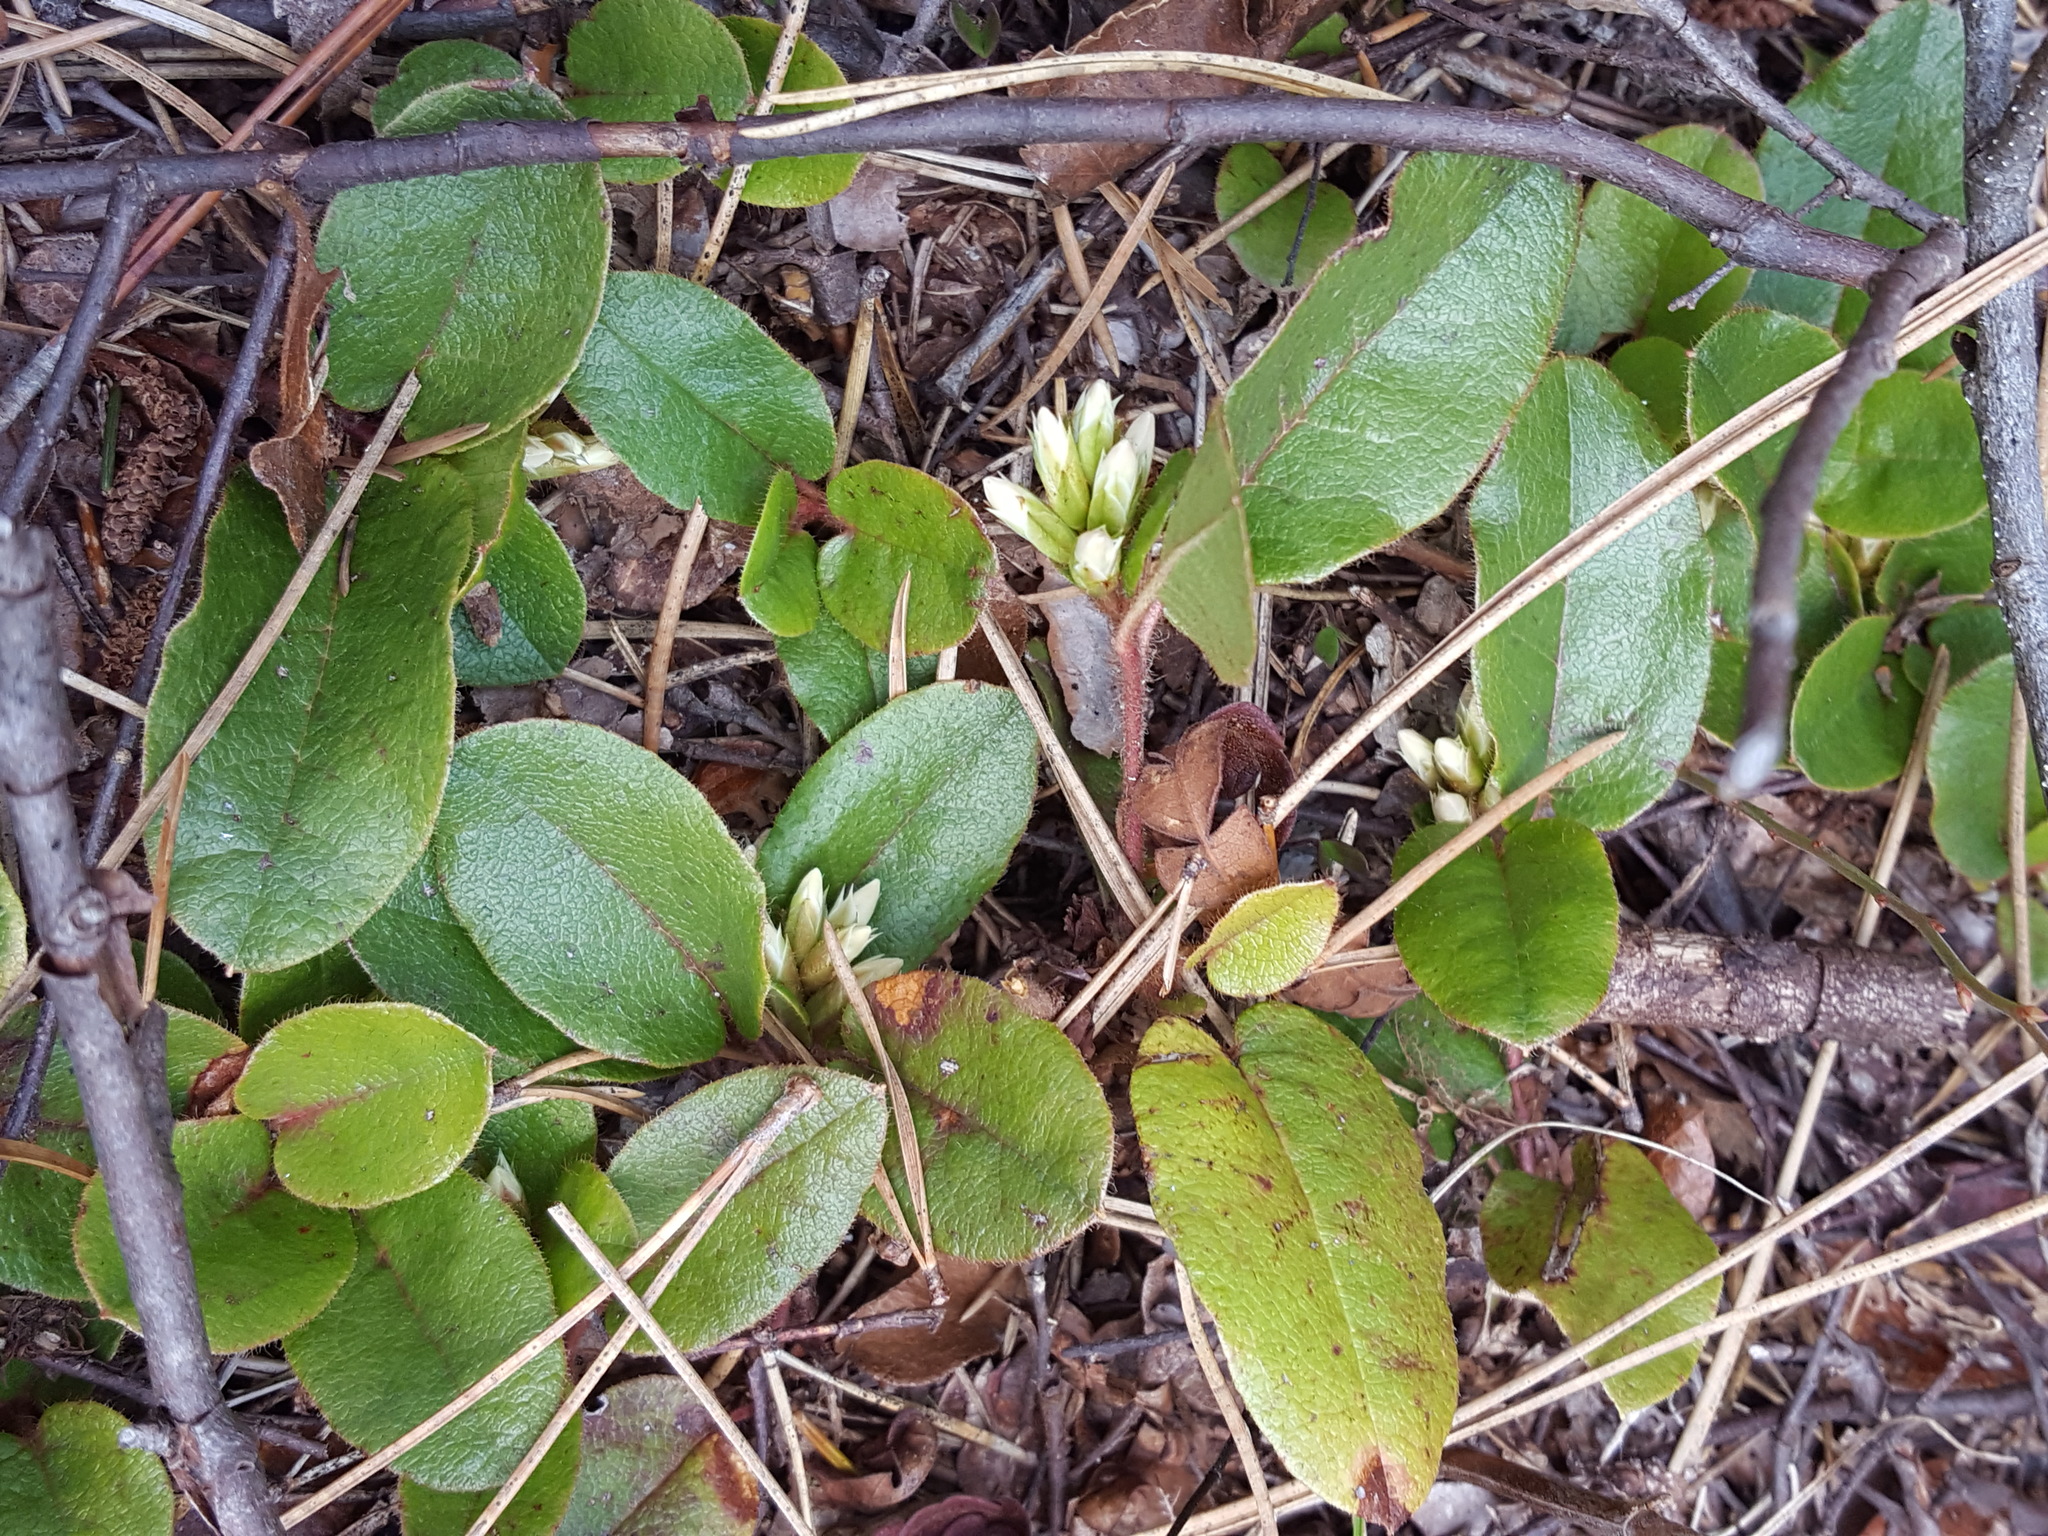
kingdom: Plantae
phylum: Tracheophyta
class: Magnoliopsida
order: Ericales
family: Ericaceae
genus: Epigaea
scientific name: Epigaea repens
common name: Gravelroot
